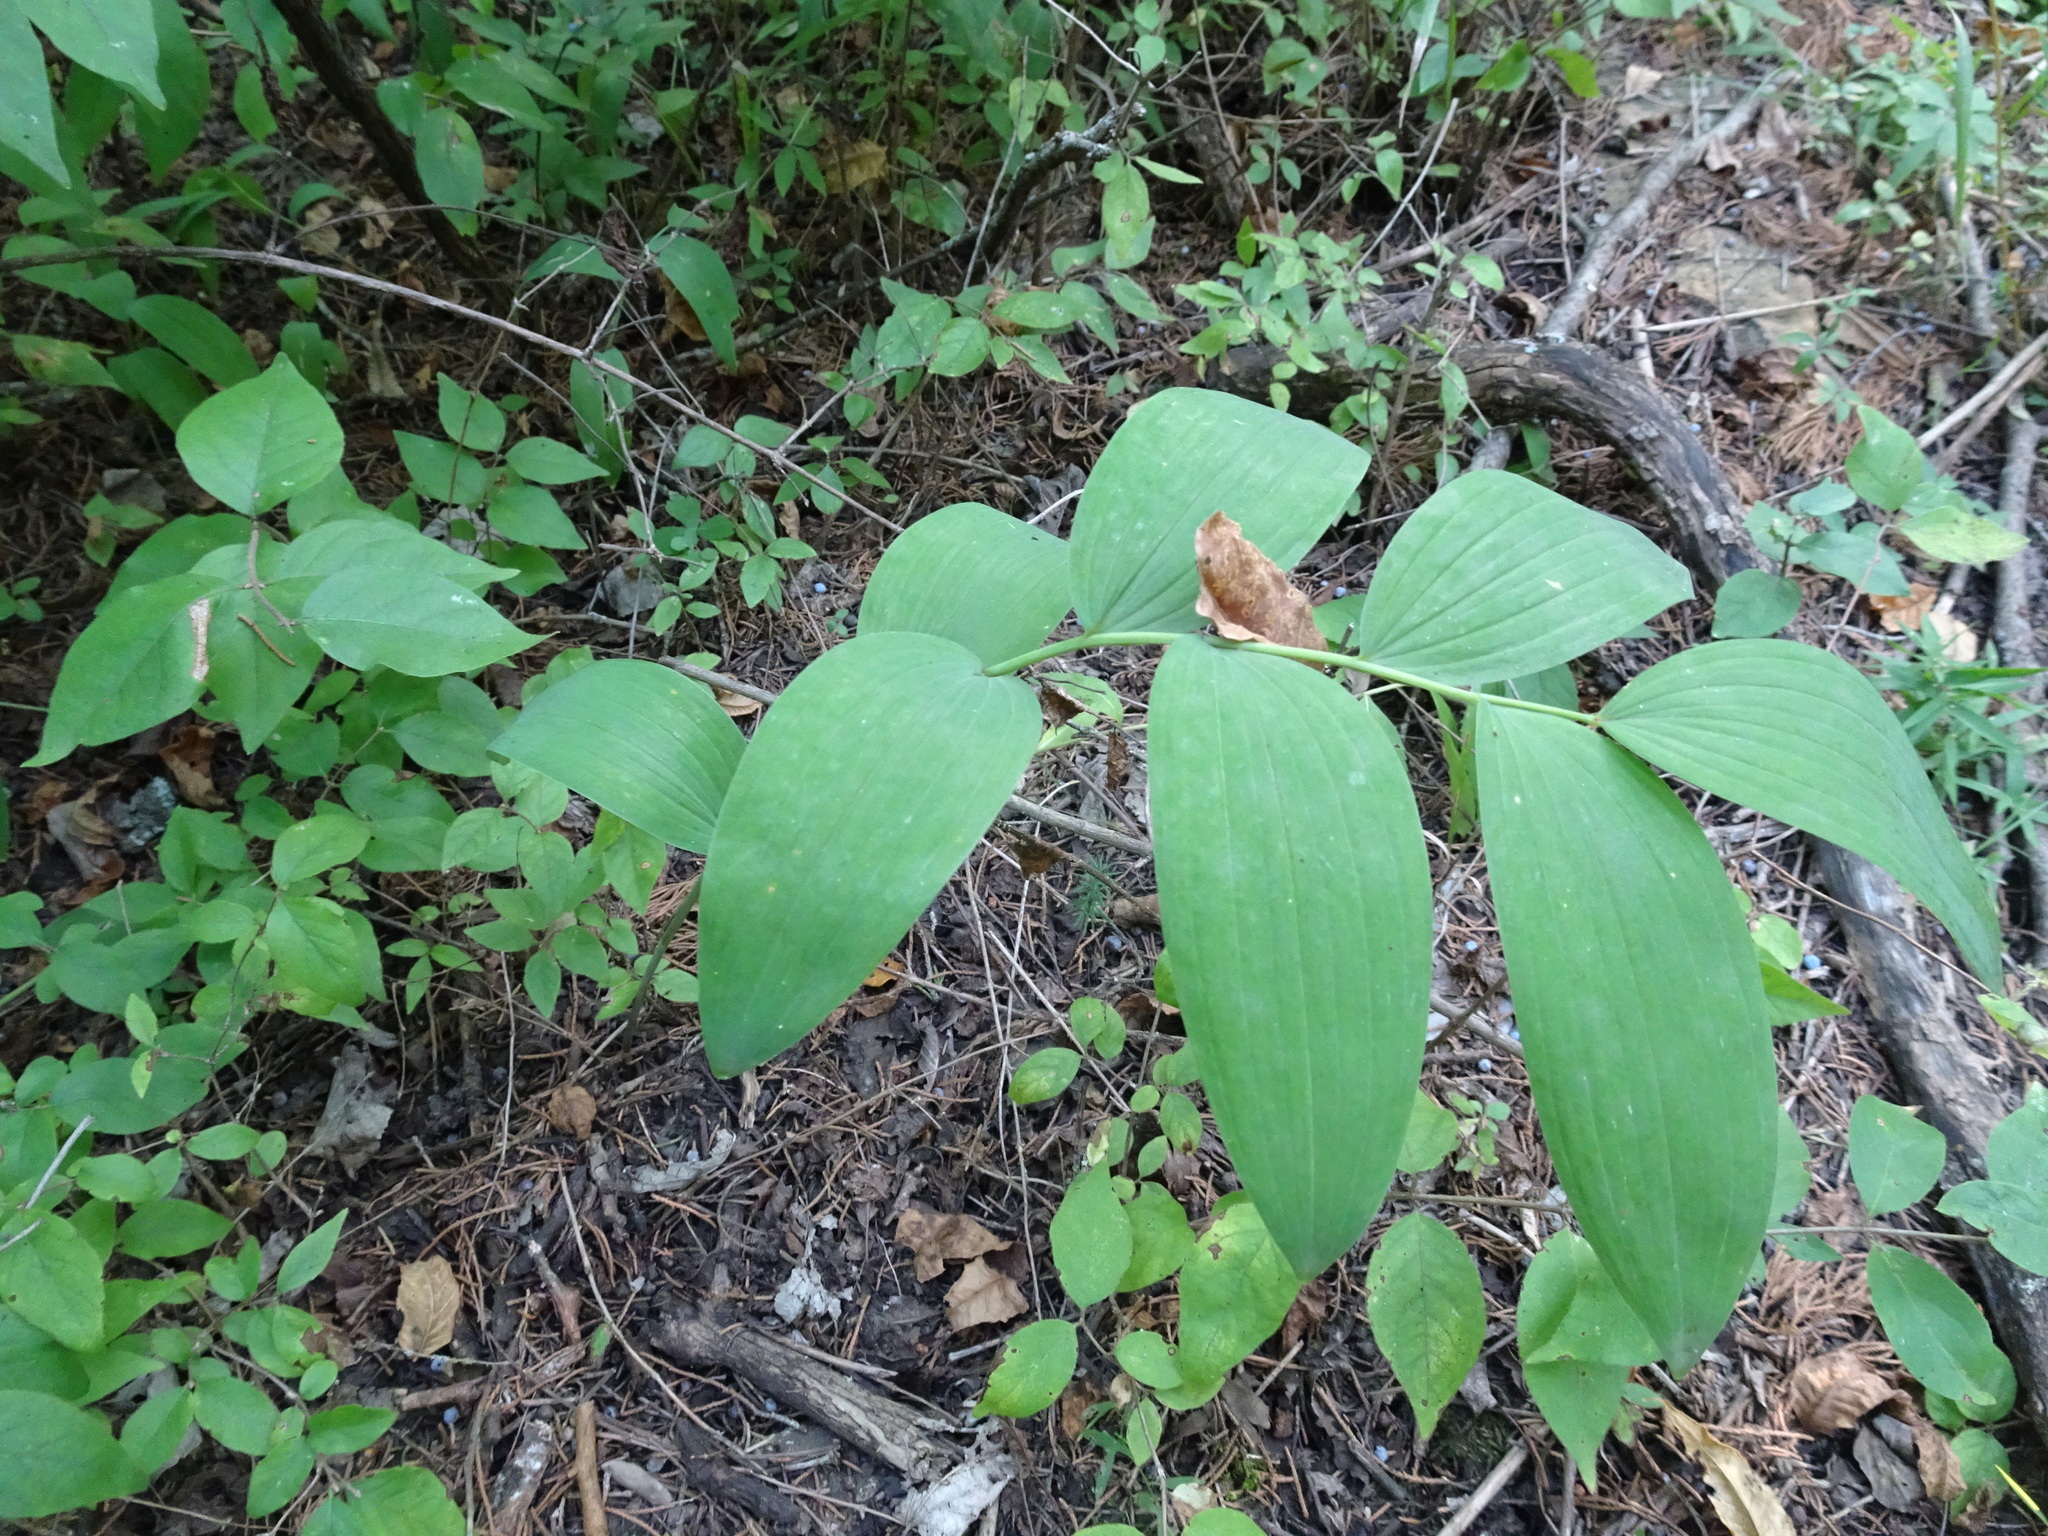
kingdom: Plantae
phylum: Tracheophyta
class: Liliopsida
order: Asparagales
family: Asparagaceae
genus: Polygonatum
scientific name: Polygonatum biflorum
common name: American solomon's-seal
